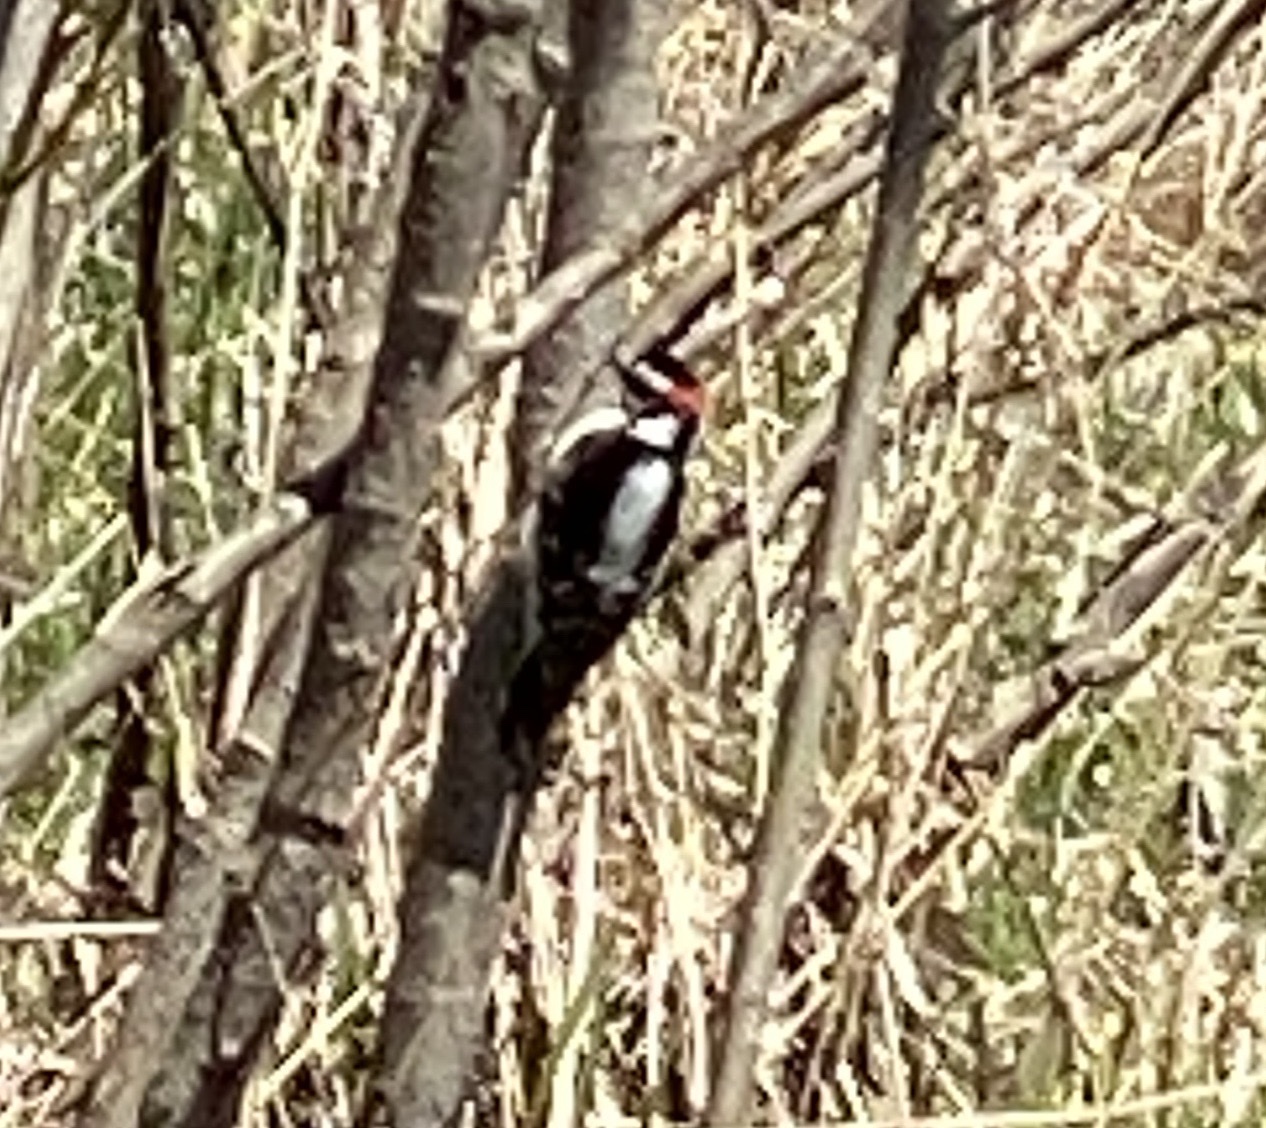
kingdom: Animalia
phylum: Chordata
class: Aves
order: Piciformes
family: Picidae
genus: Dryobates
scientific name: Dryobates pubescens
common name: Downy woodpecker
